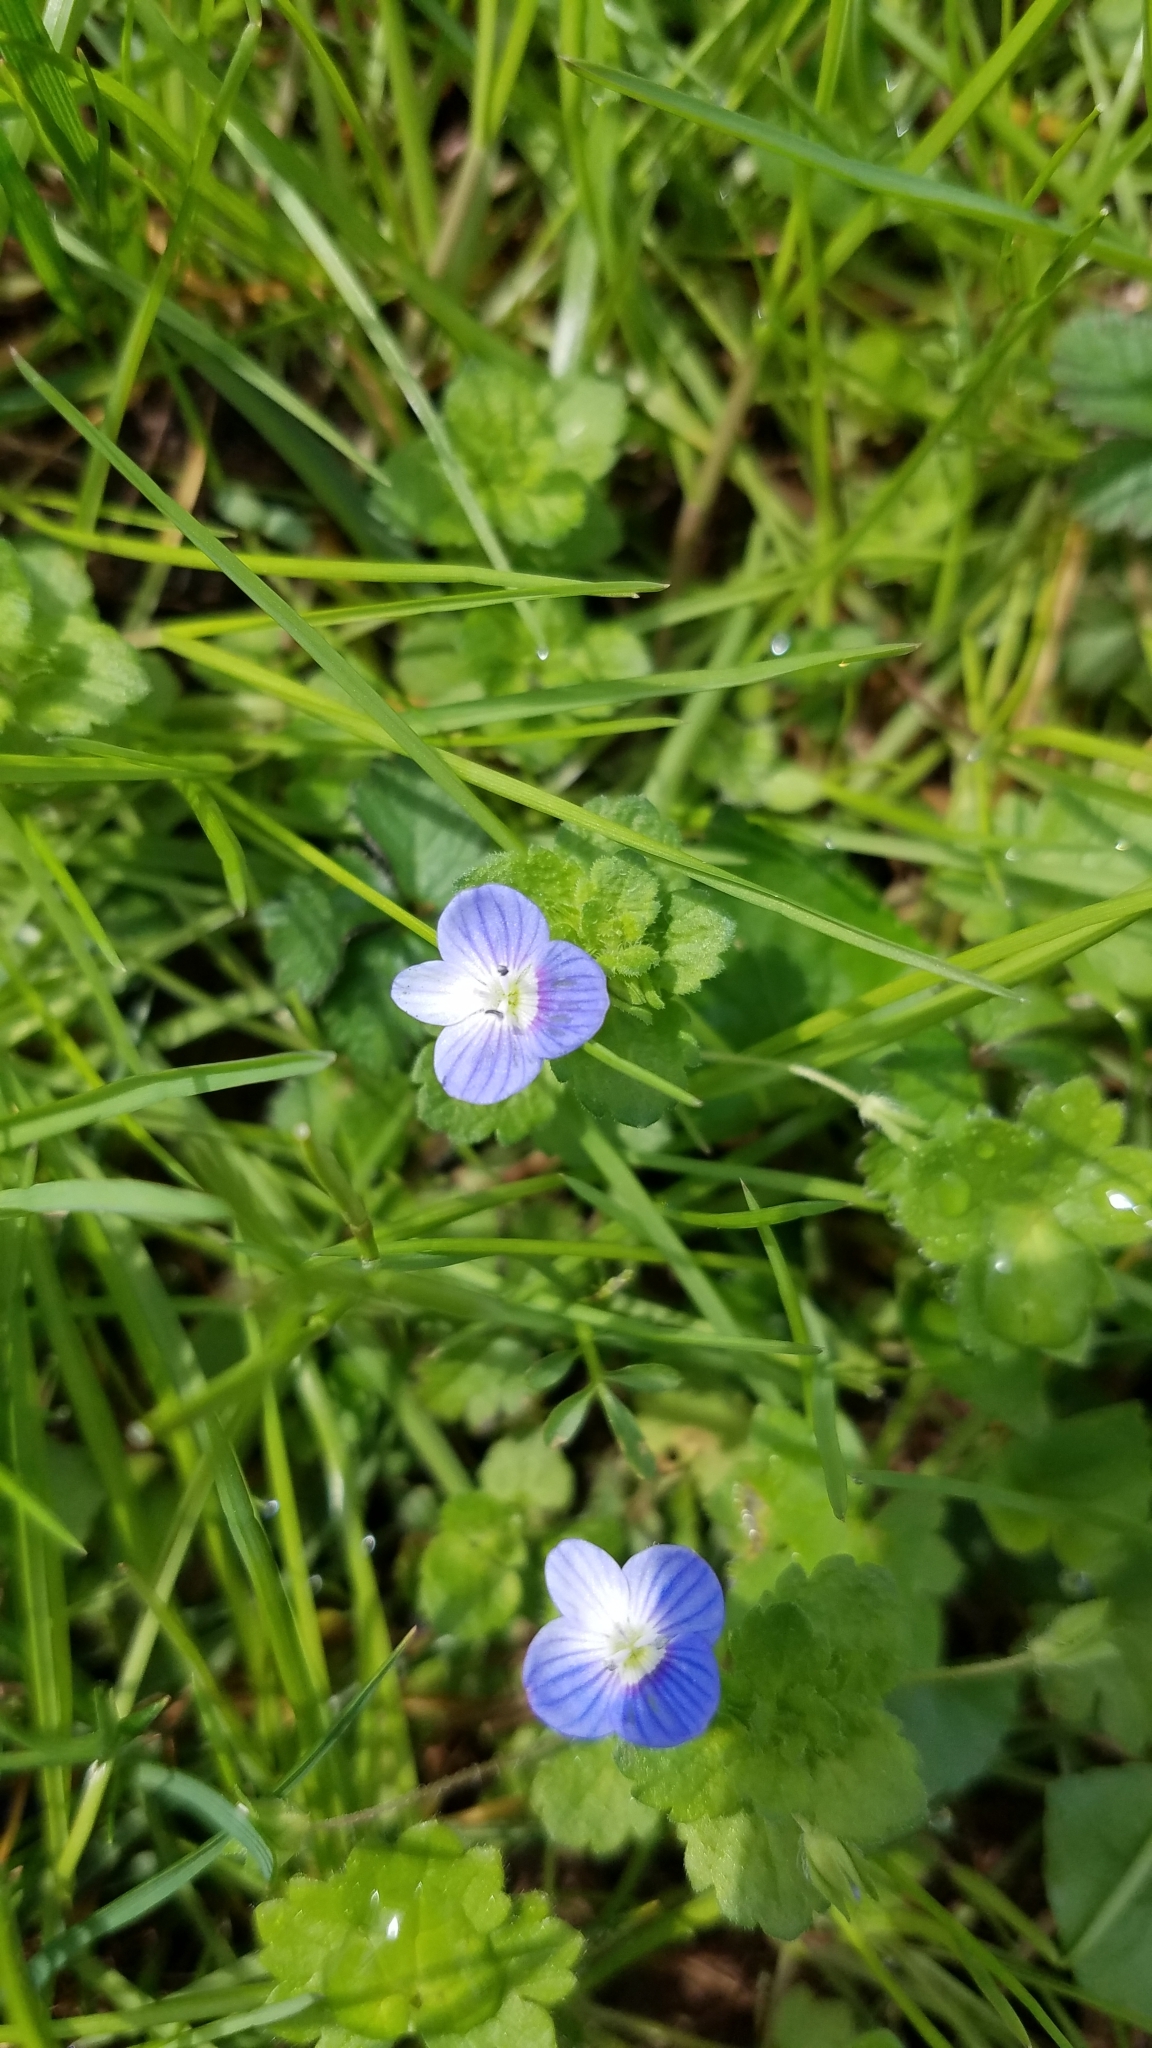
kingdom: Plantae
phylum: Tracheophyta
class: Magnoliopsida
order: Lamiales
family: Plantaginaceae
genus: Veronica
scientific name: Veronica persica
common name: Common field-speedwell
